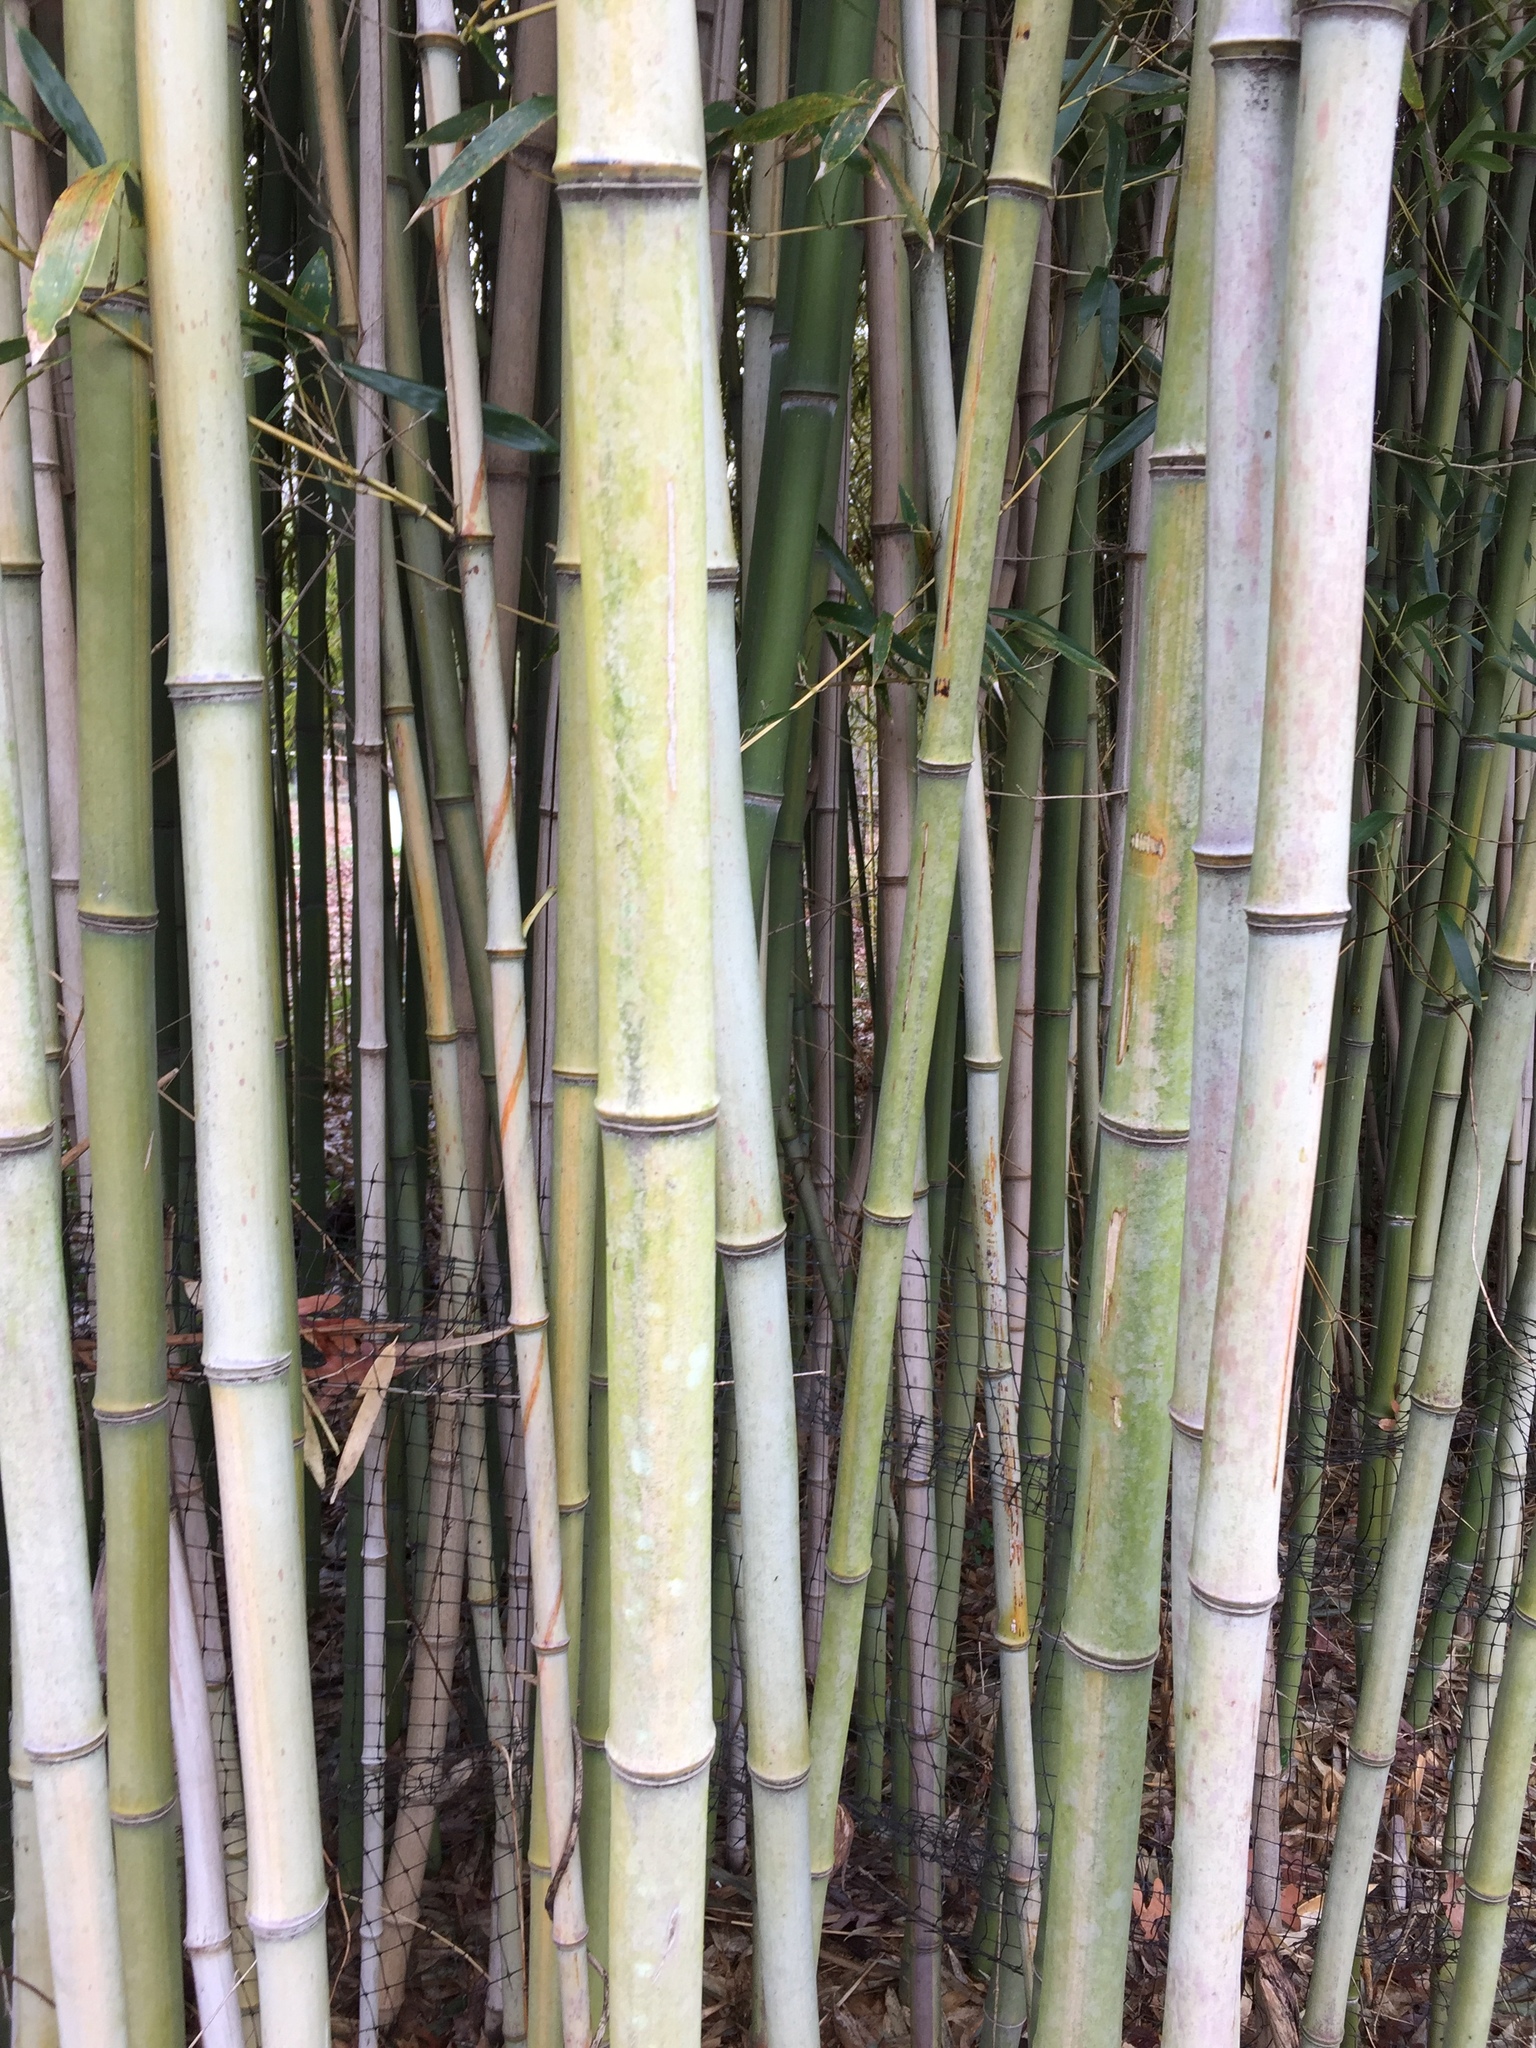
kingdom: Plantae
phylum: Tracheophyta
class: Liliopsida
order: Poales
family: Poaceae
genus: Phyllostachys
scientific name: Phyllostachys aurea
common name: Golden bamboo
